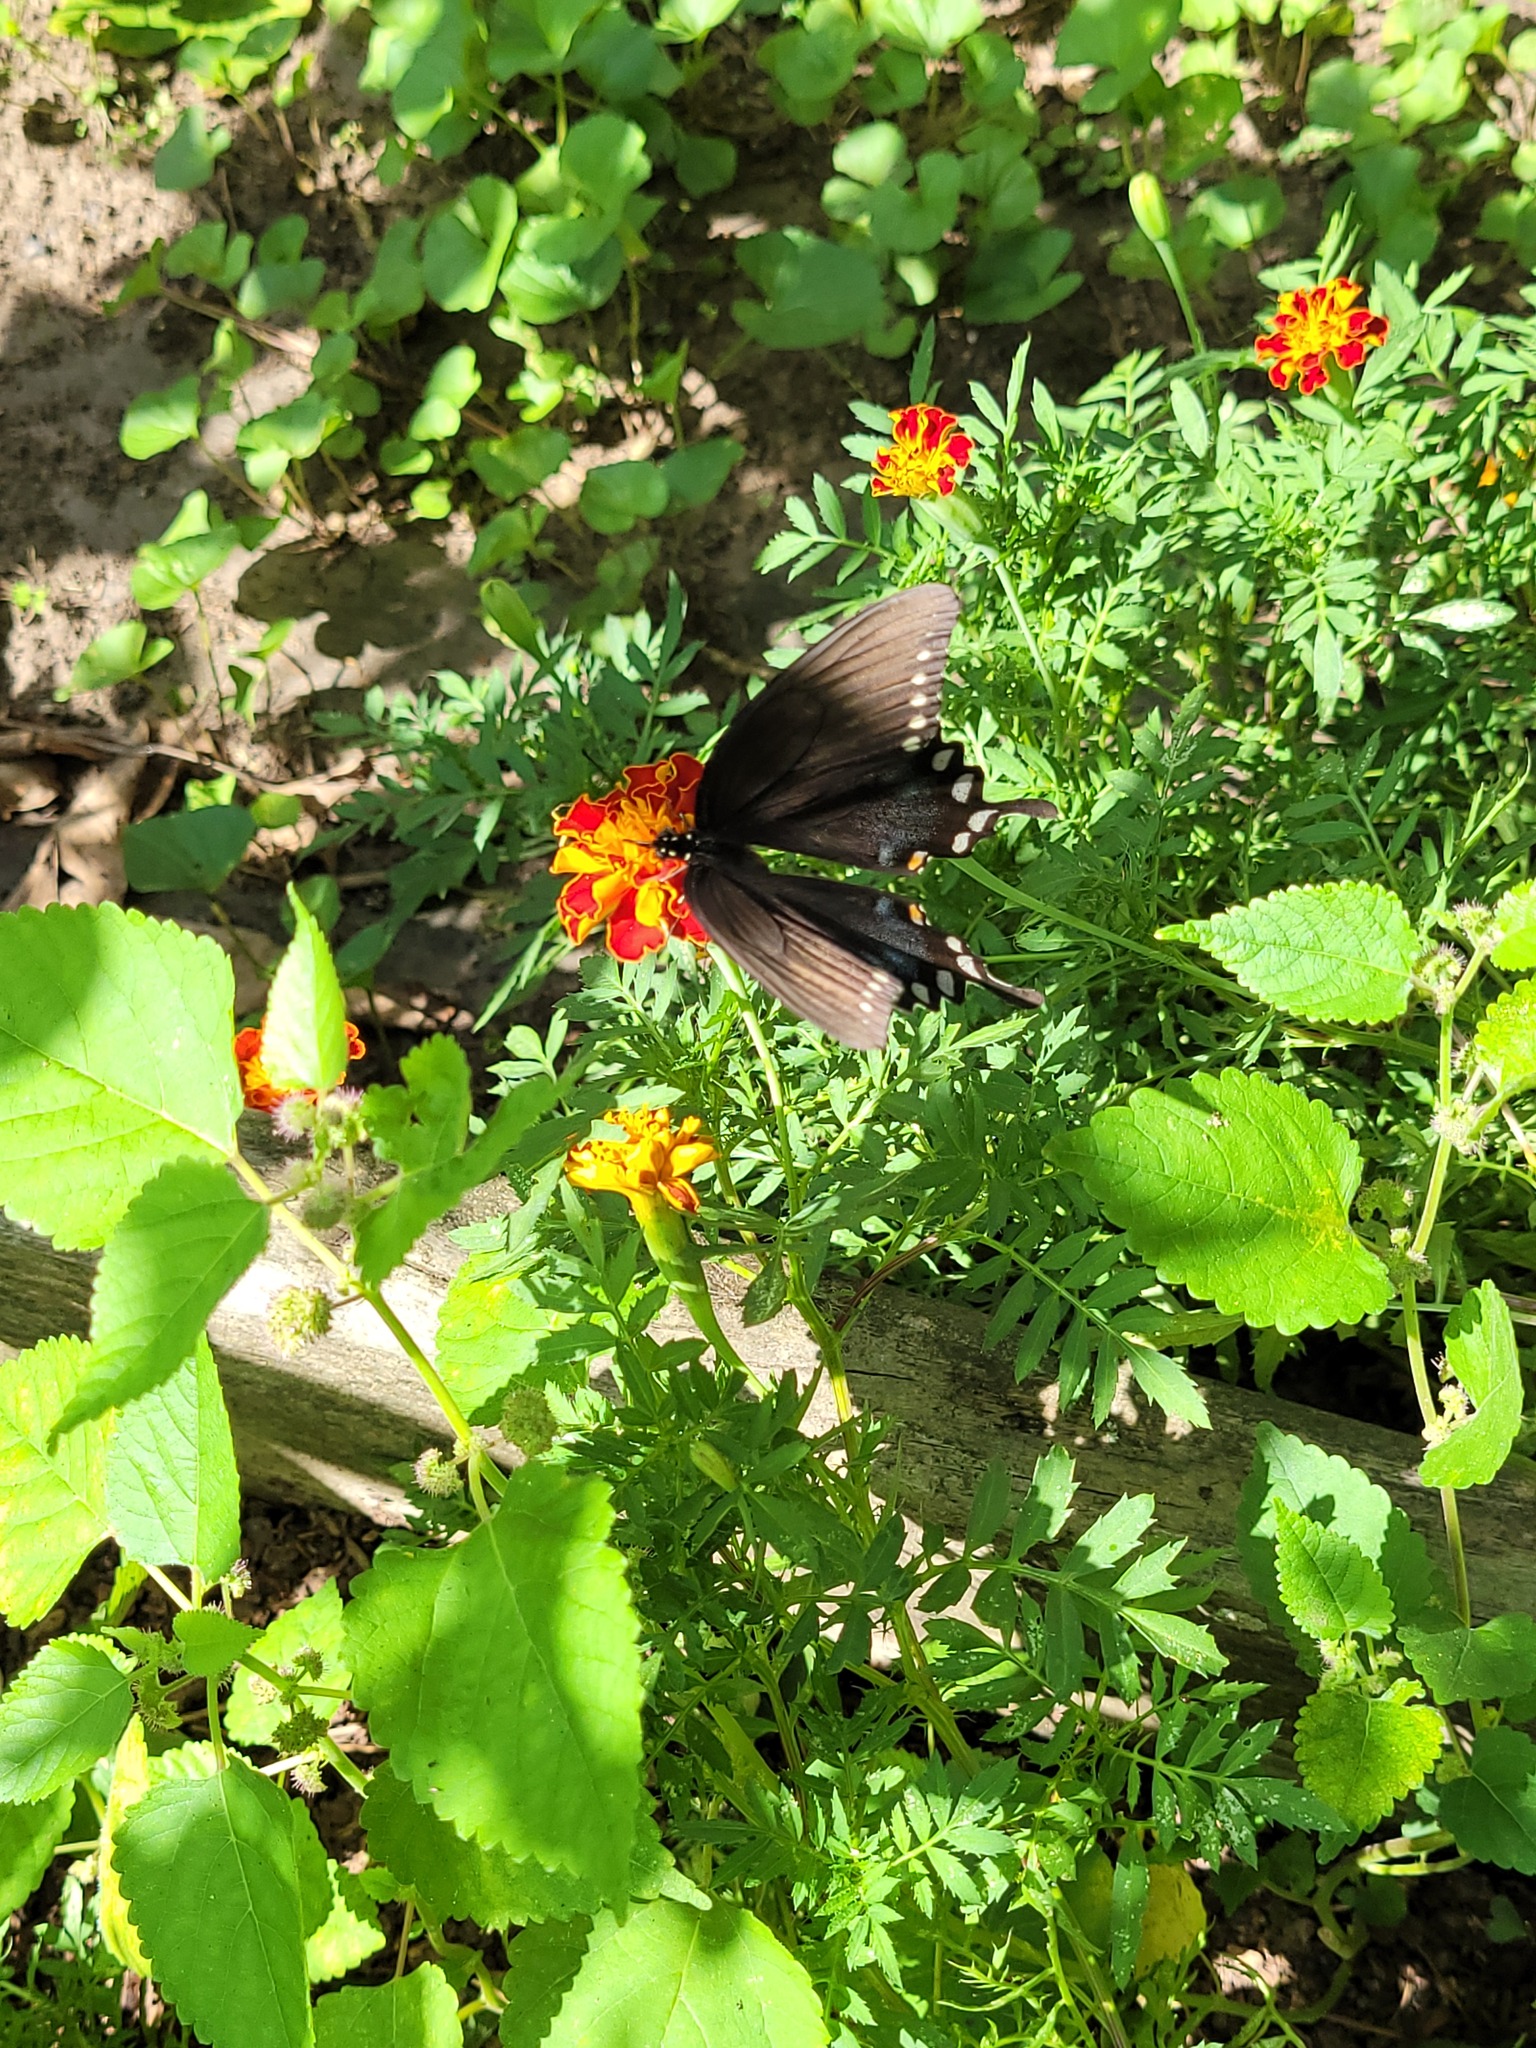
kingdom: Animalia
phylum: Arthropoda
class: Insecta
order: Lepidoptera
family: Papilionidae
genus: Papilio
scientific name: Papilio troilus
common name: Spicebush swallowtail
